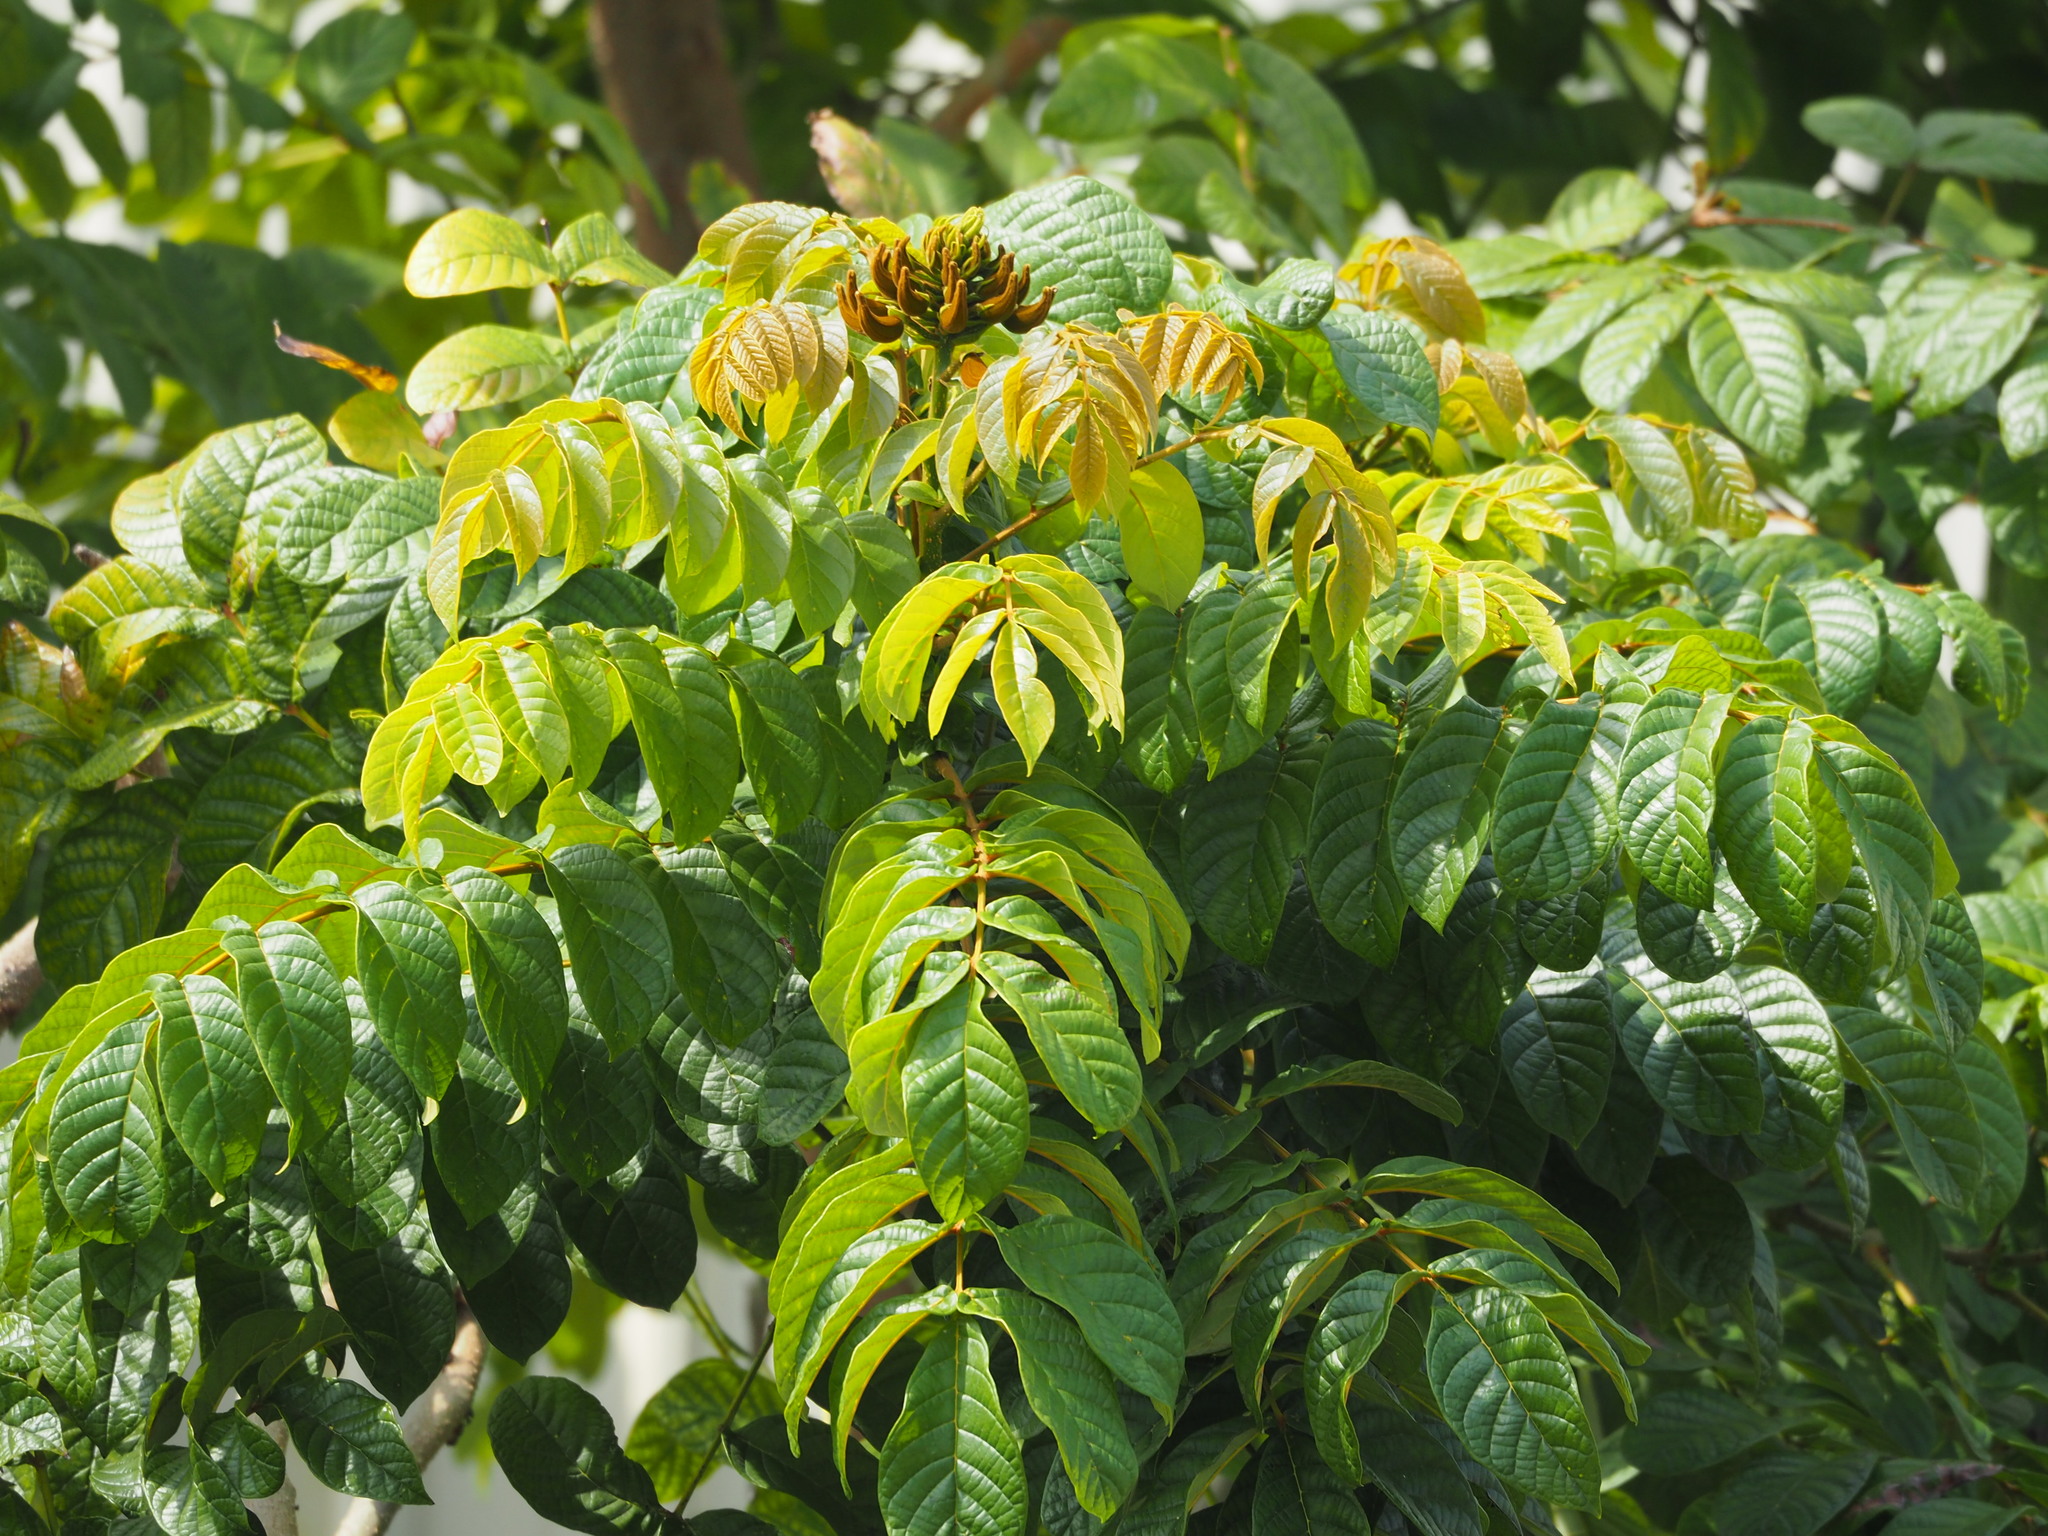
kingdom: Plantae
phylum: Tracheophyta
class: Magnoliopsida
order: Lamiales
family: Bignoniaceae
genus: Spathodea
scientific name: Spathodea campanulata
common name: African tuliptree
